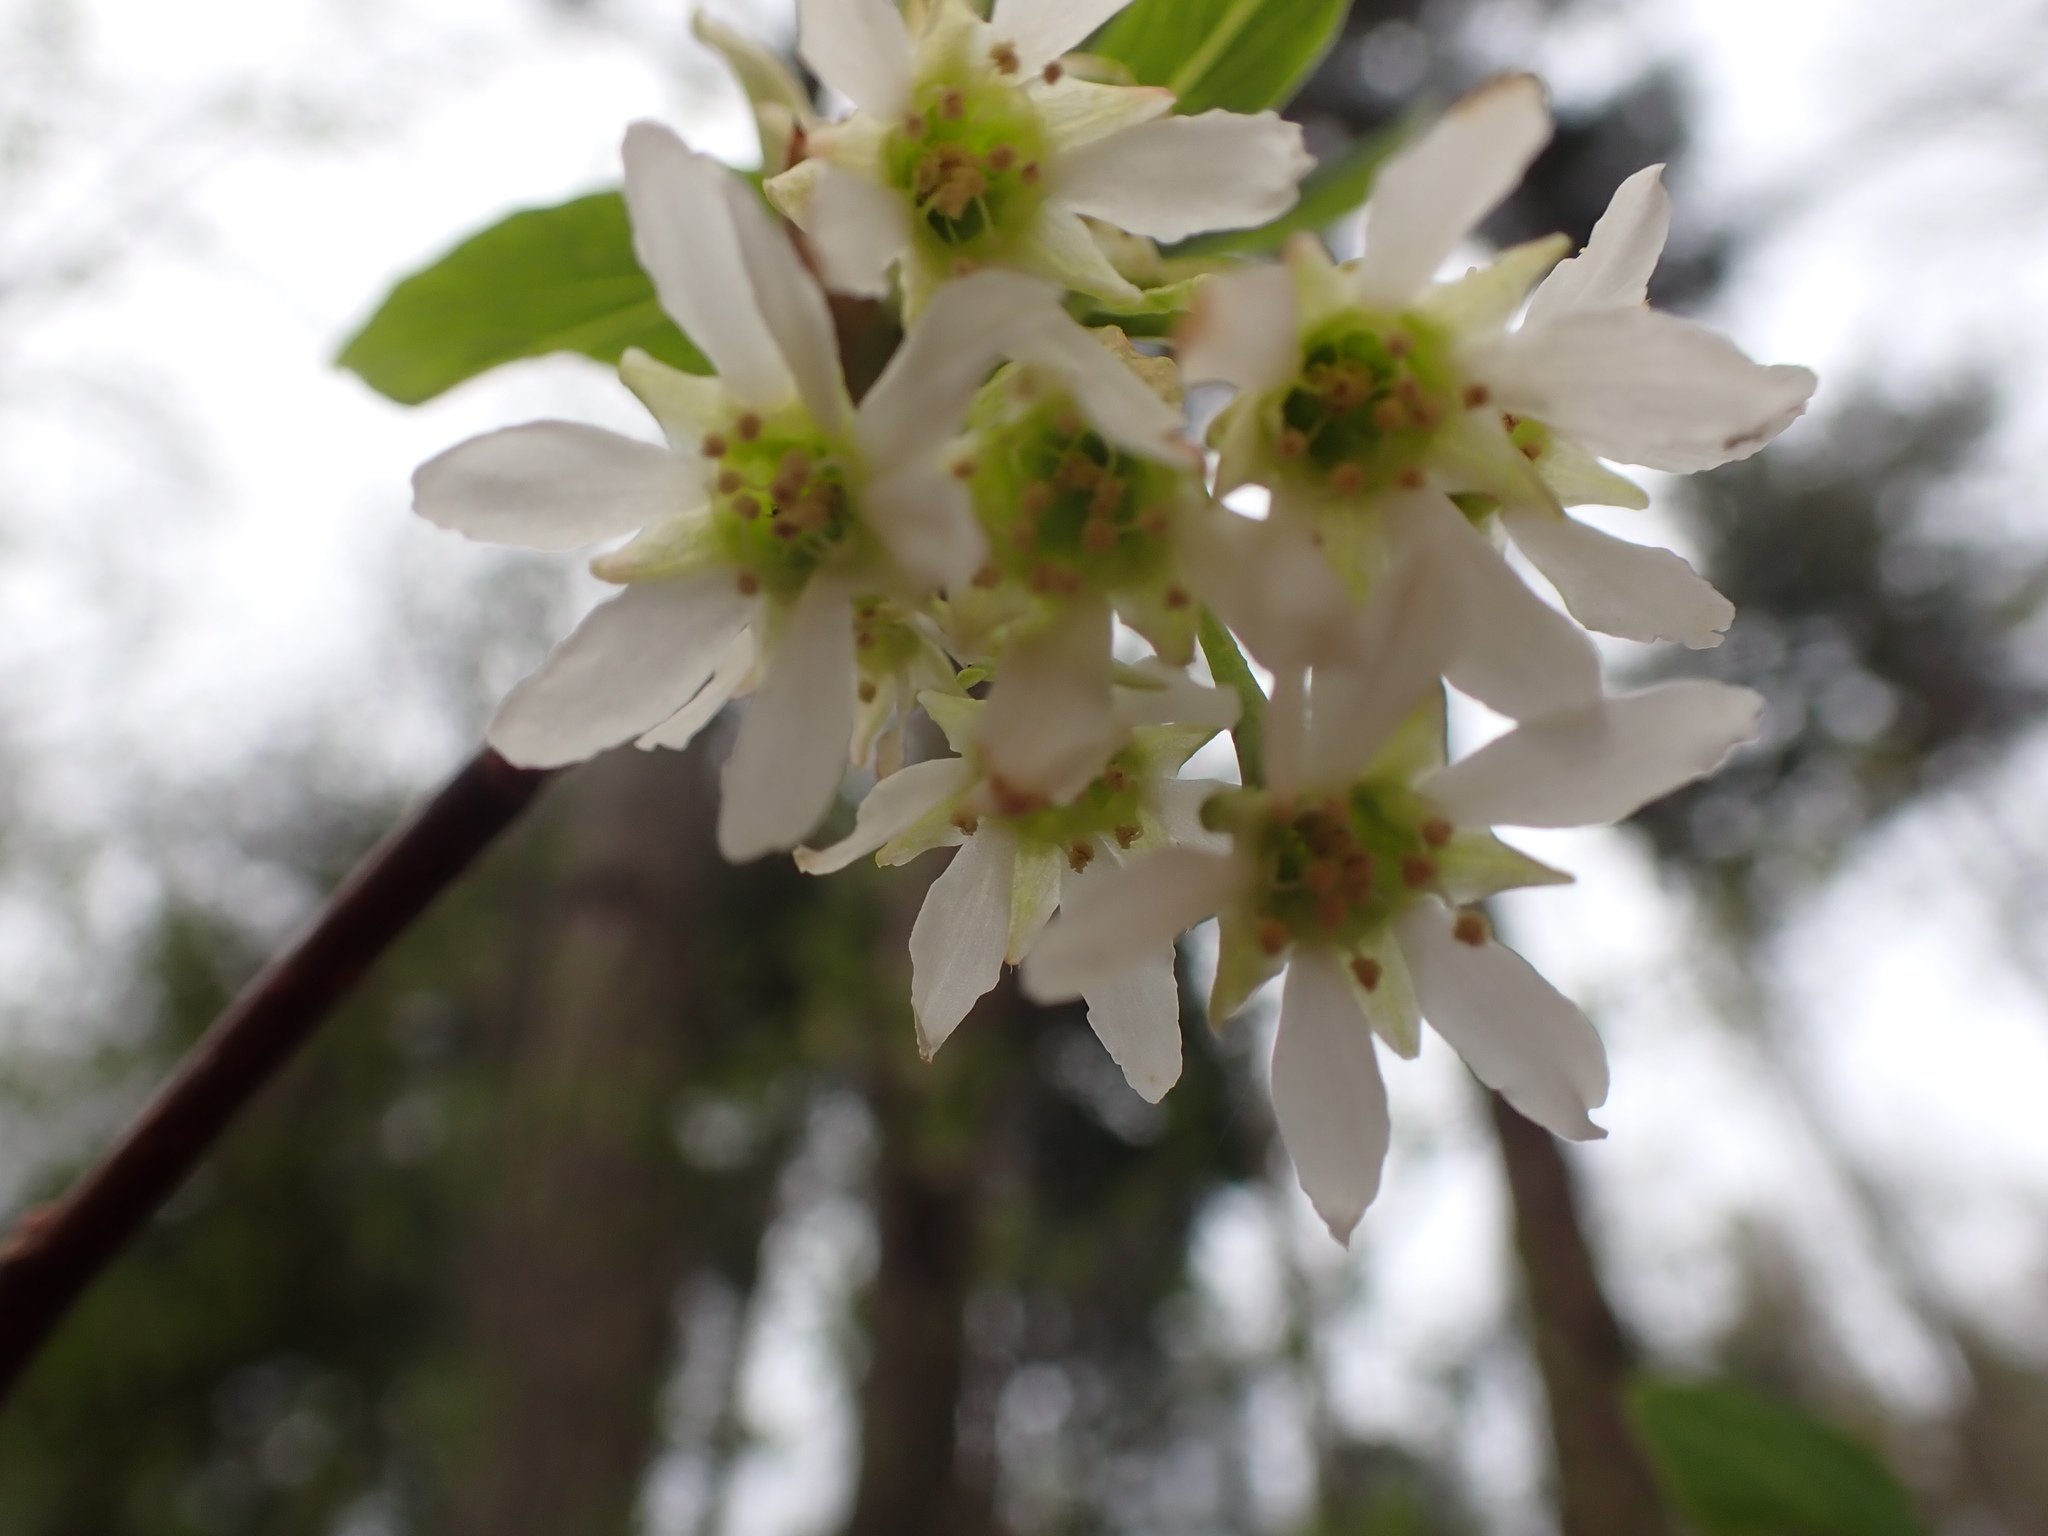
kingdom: Plantae
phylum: Tracheophyta
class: Magnoliopsida
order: Rosales
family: Rosaceae
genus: Oemleria
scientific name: Oemleria cerasiformis
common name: Osoberry
